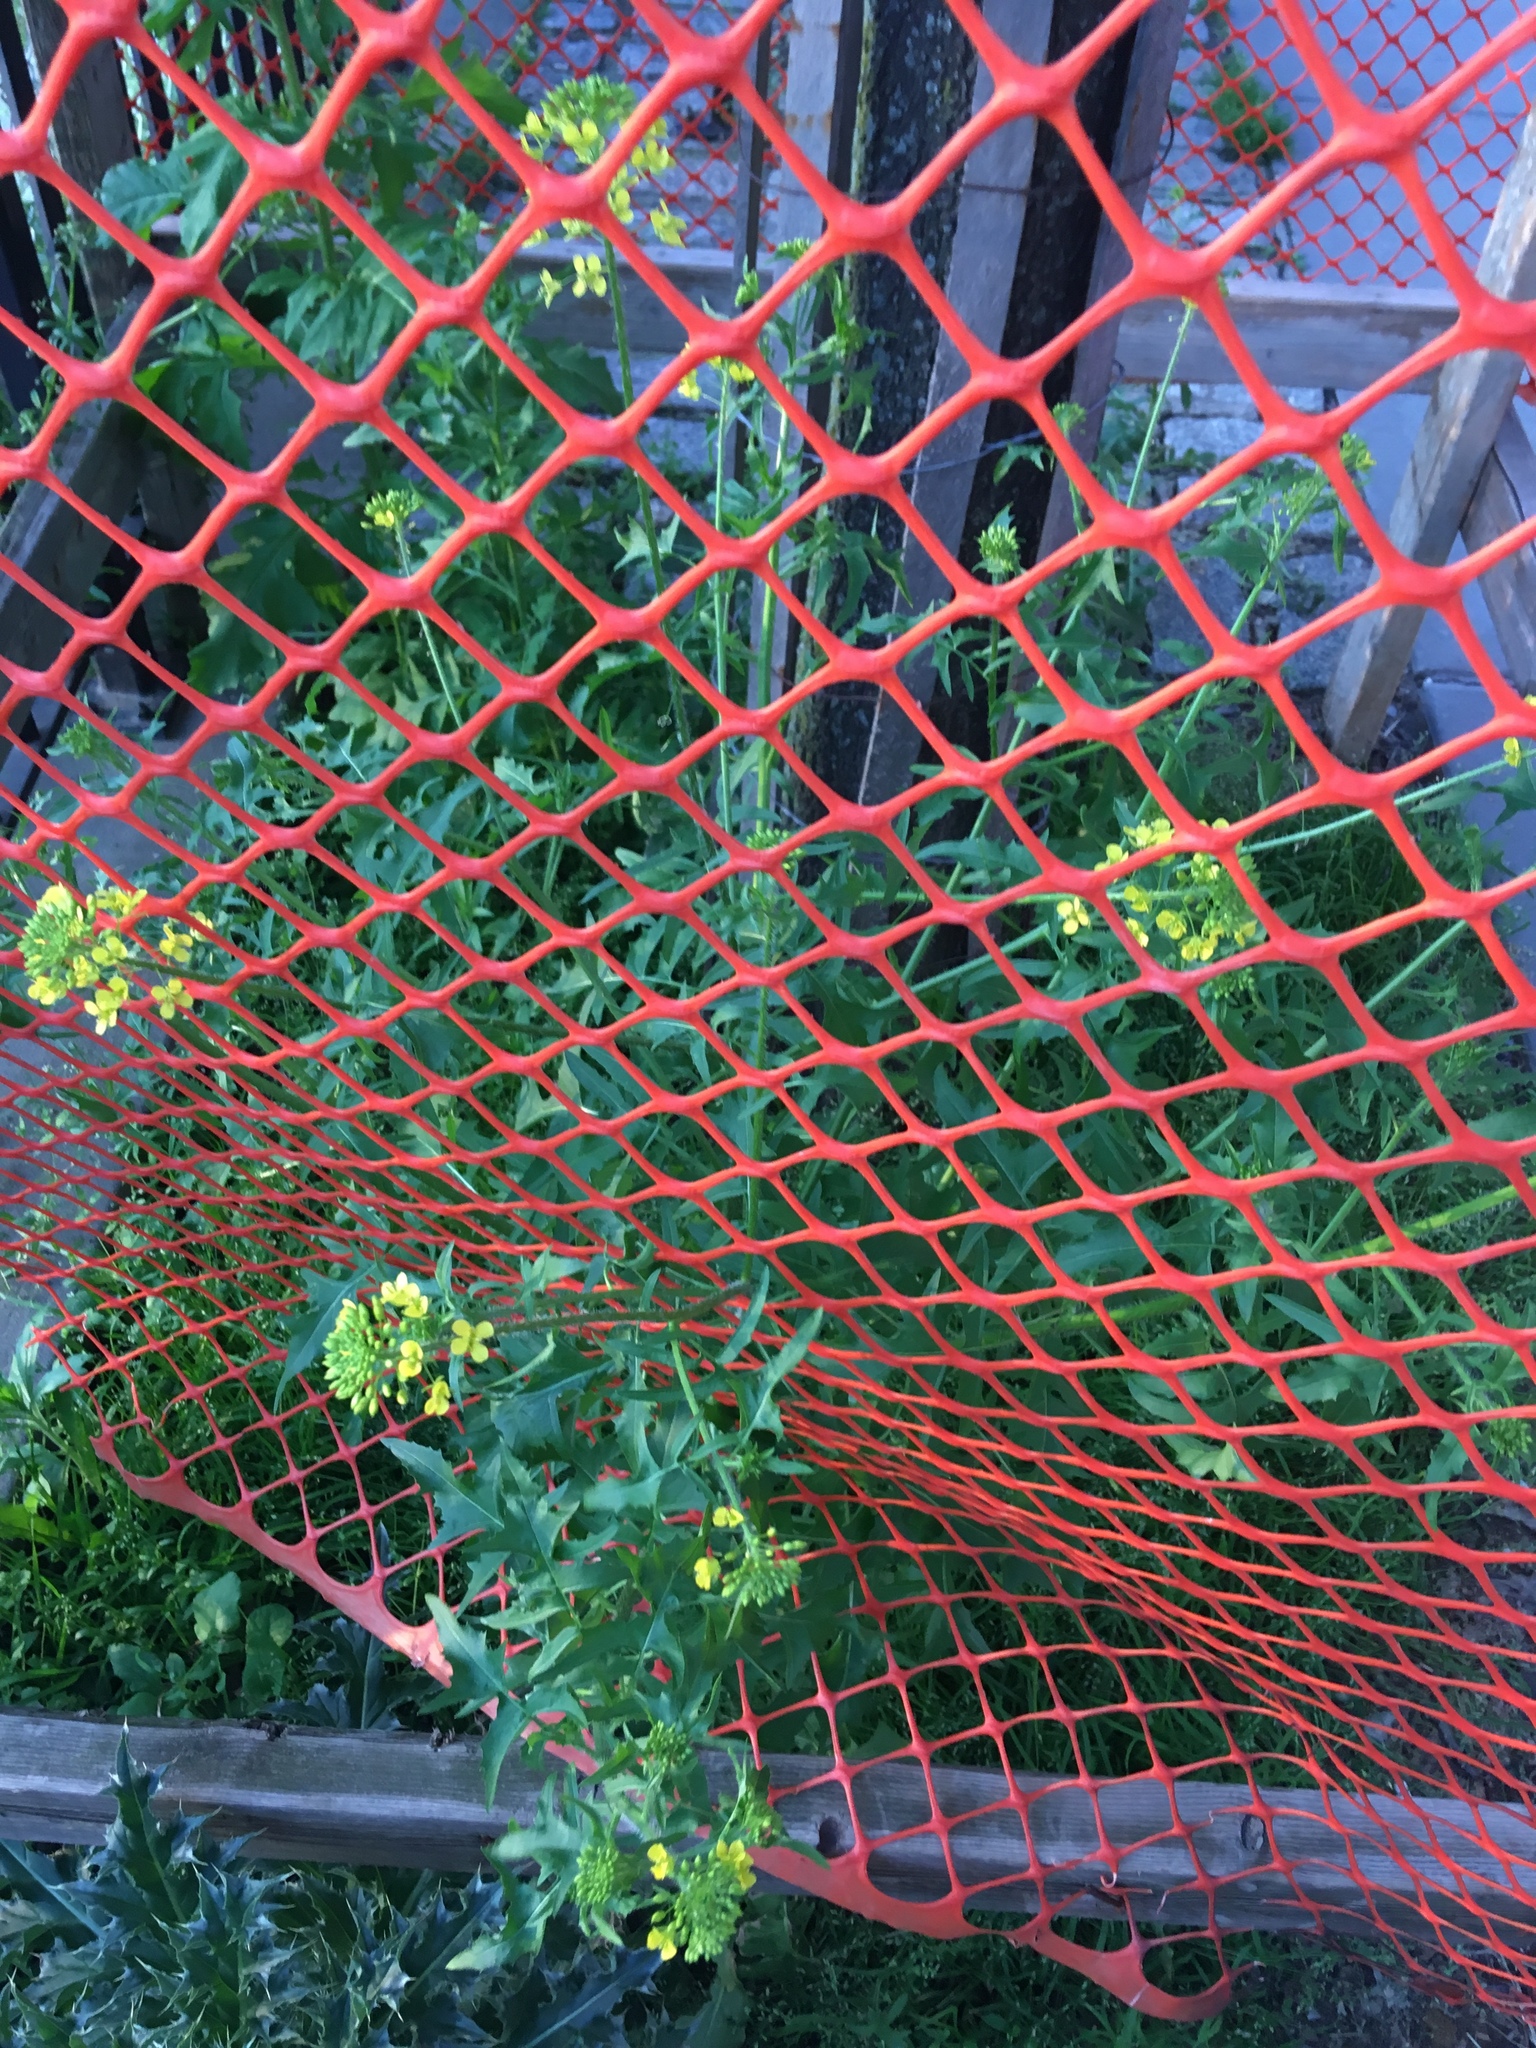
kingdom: Plantae
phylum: Tracheophyta
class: Magnoliopsida
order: Brassicales
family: Brassicaceae
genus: Sisymbrium
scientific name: Sisymbrium loeselii
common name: False london-rocket
